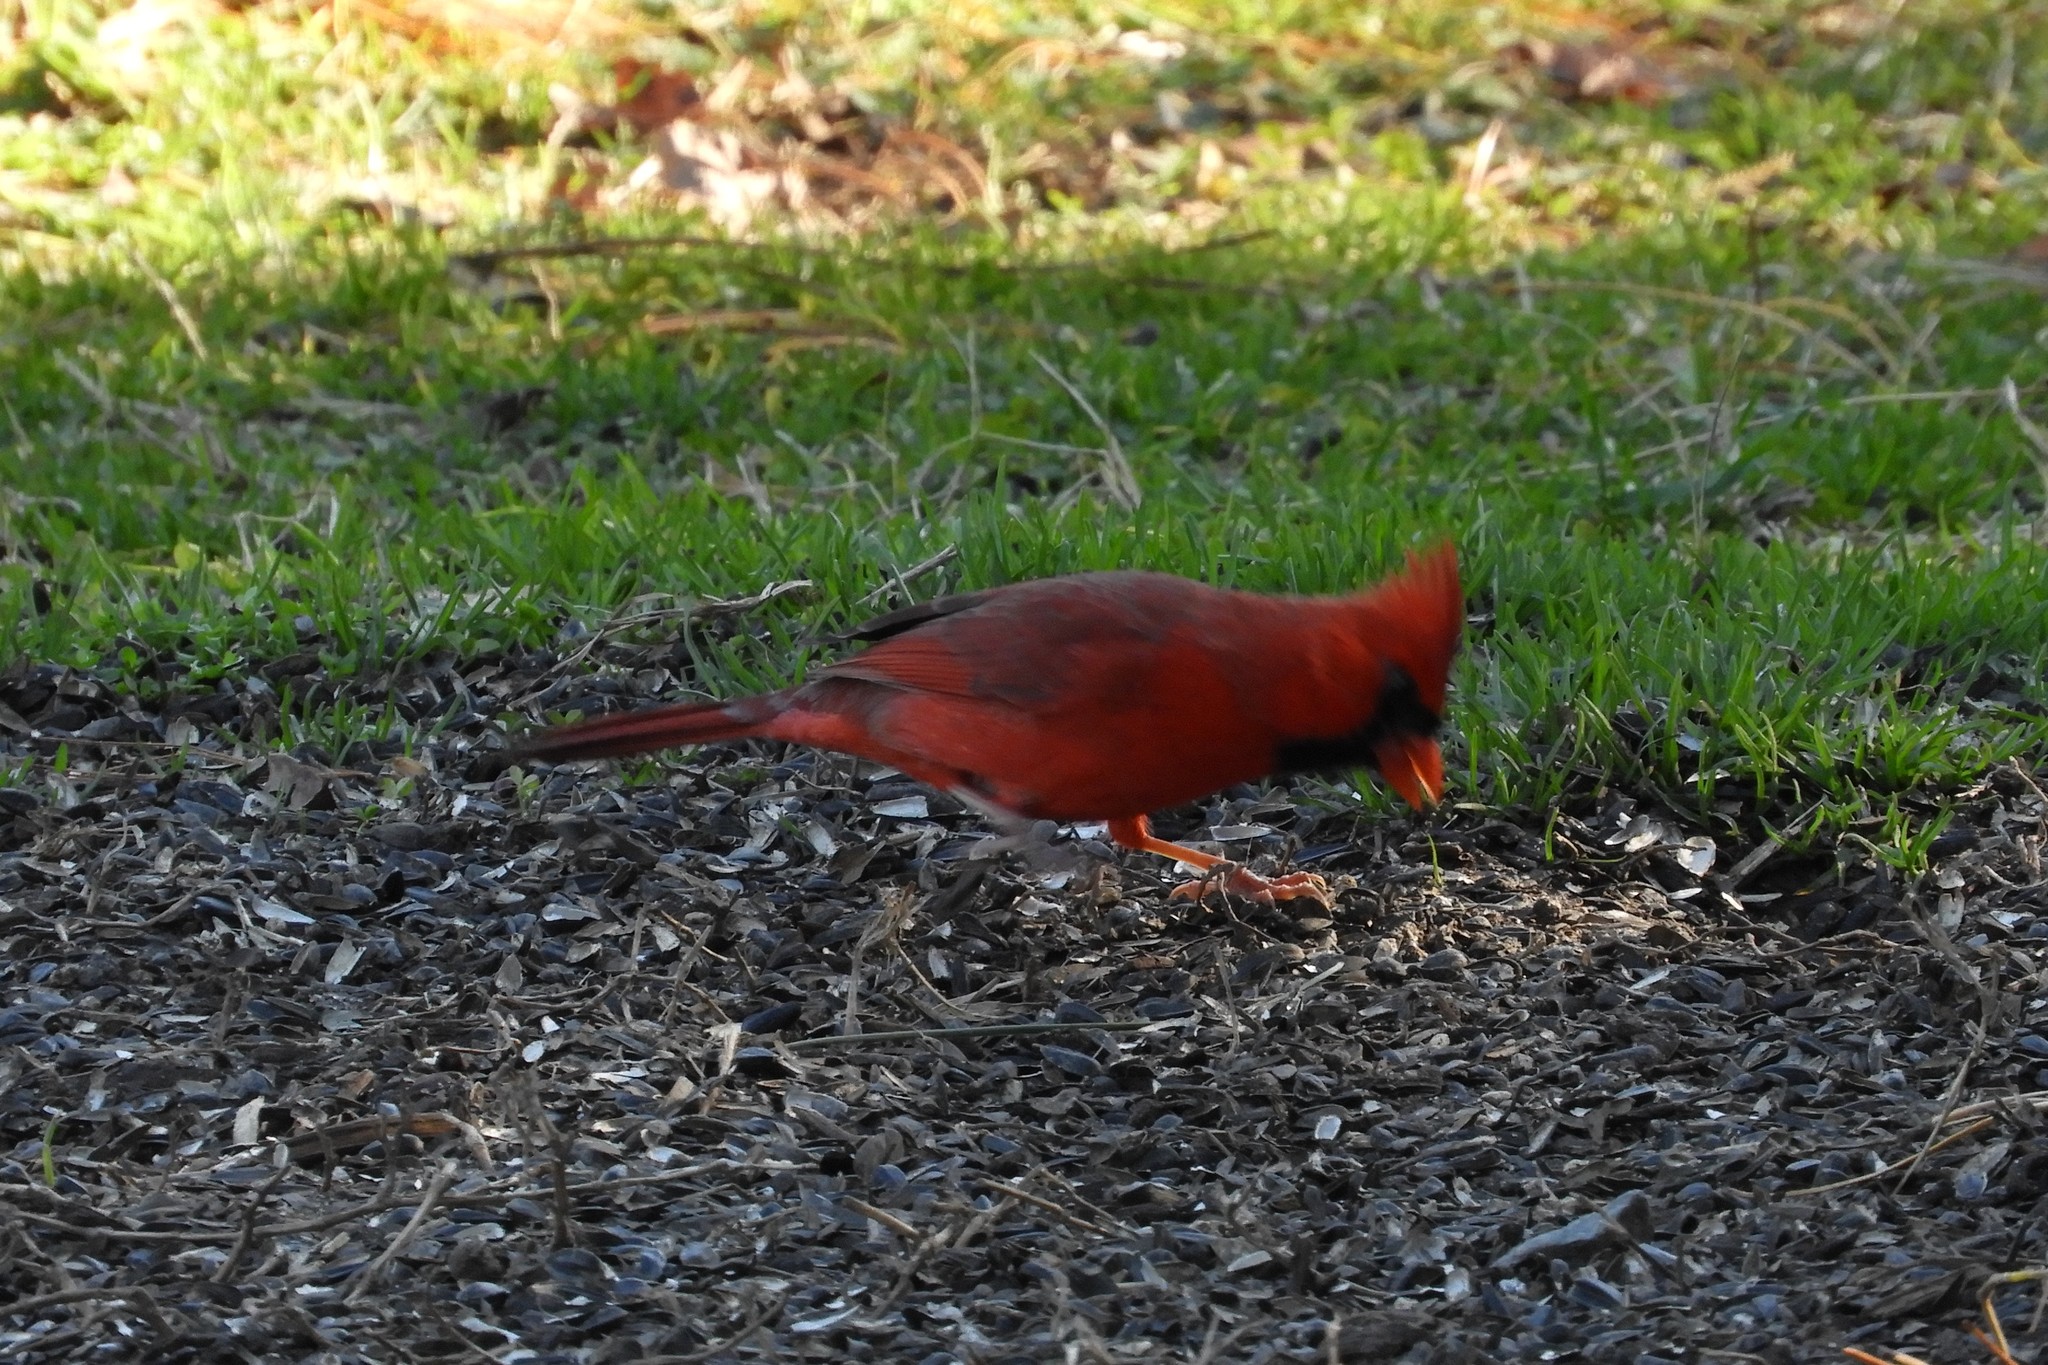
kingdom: Animalia
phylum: Chordata
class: Aves
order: Passeriformes
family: Cardinalidae
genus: Cardinalis
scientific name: Cardinalis cardinalis
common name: Northern cardinal
